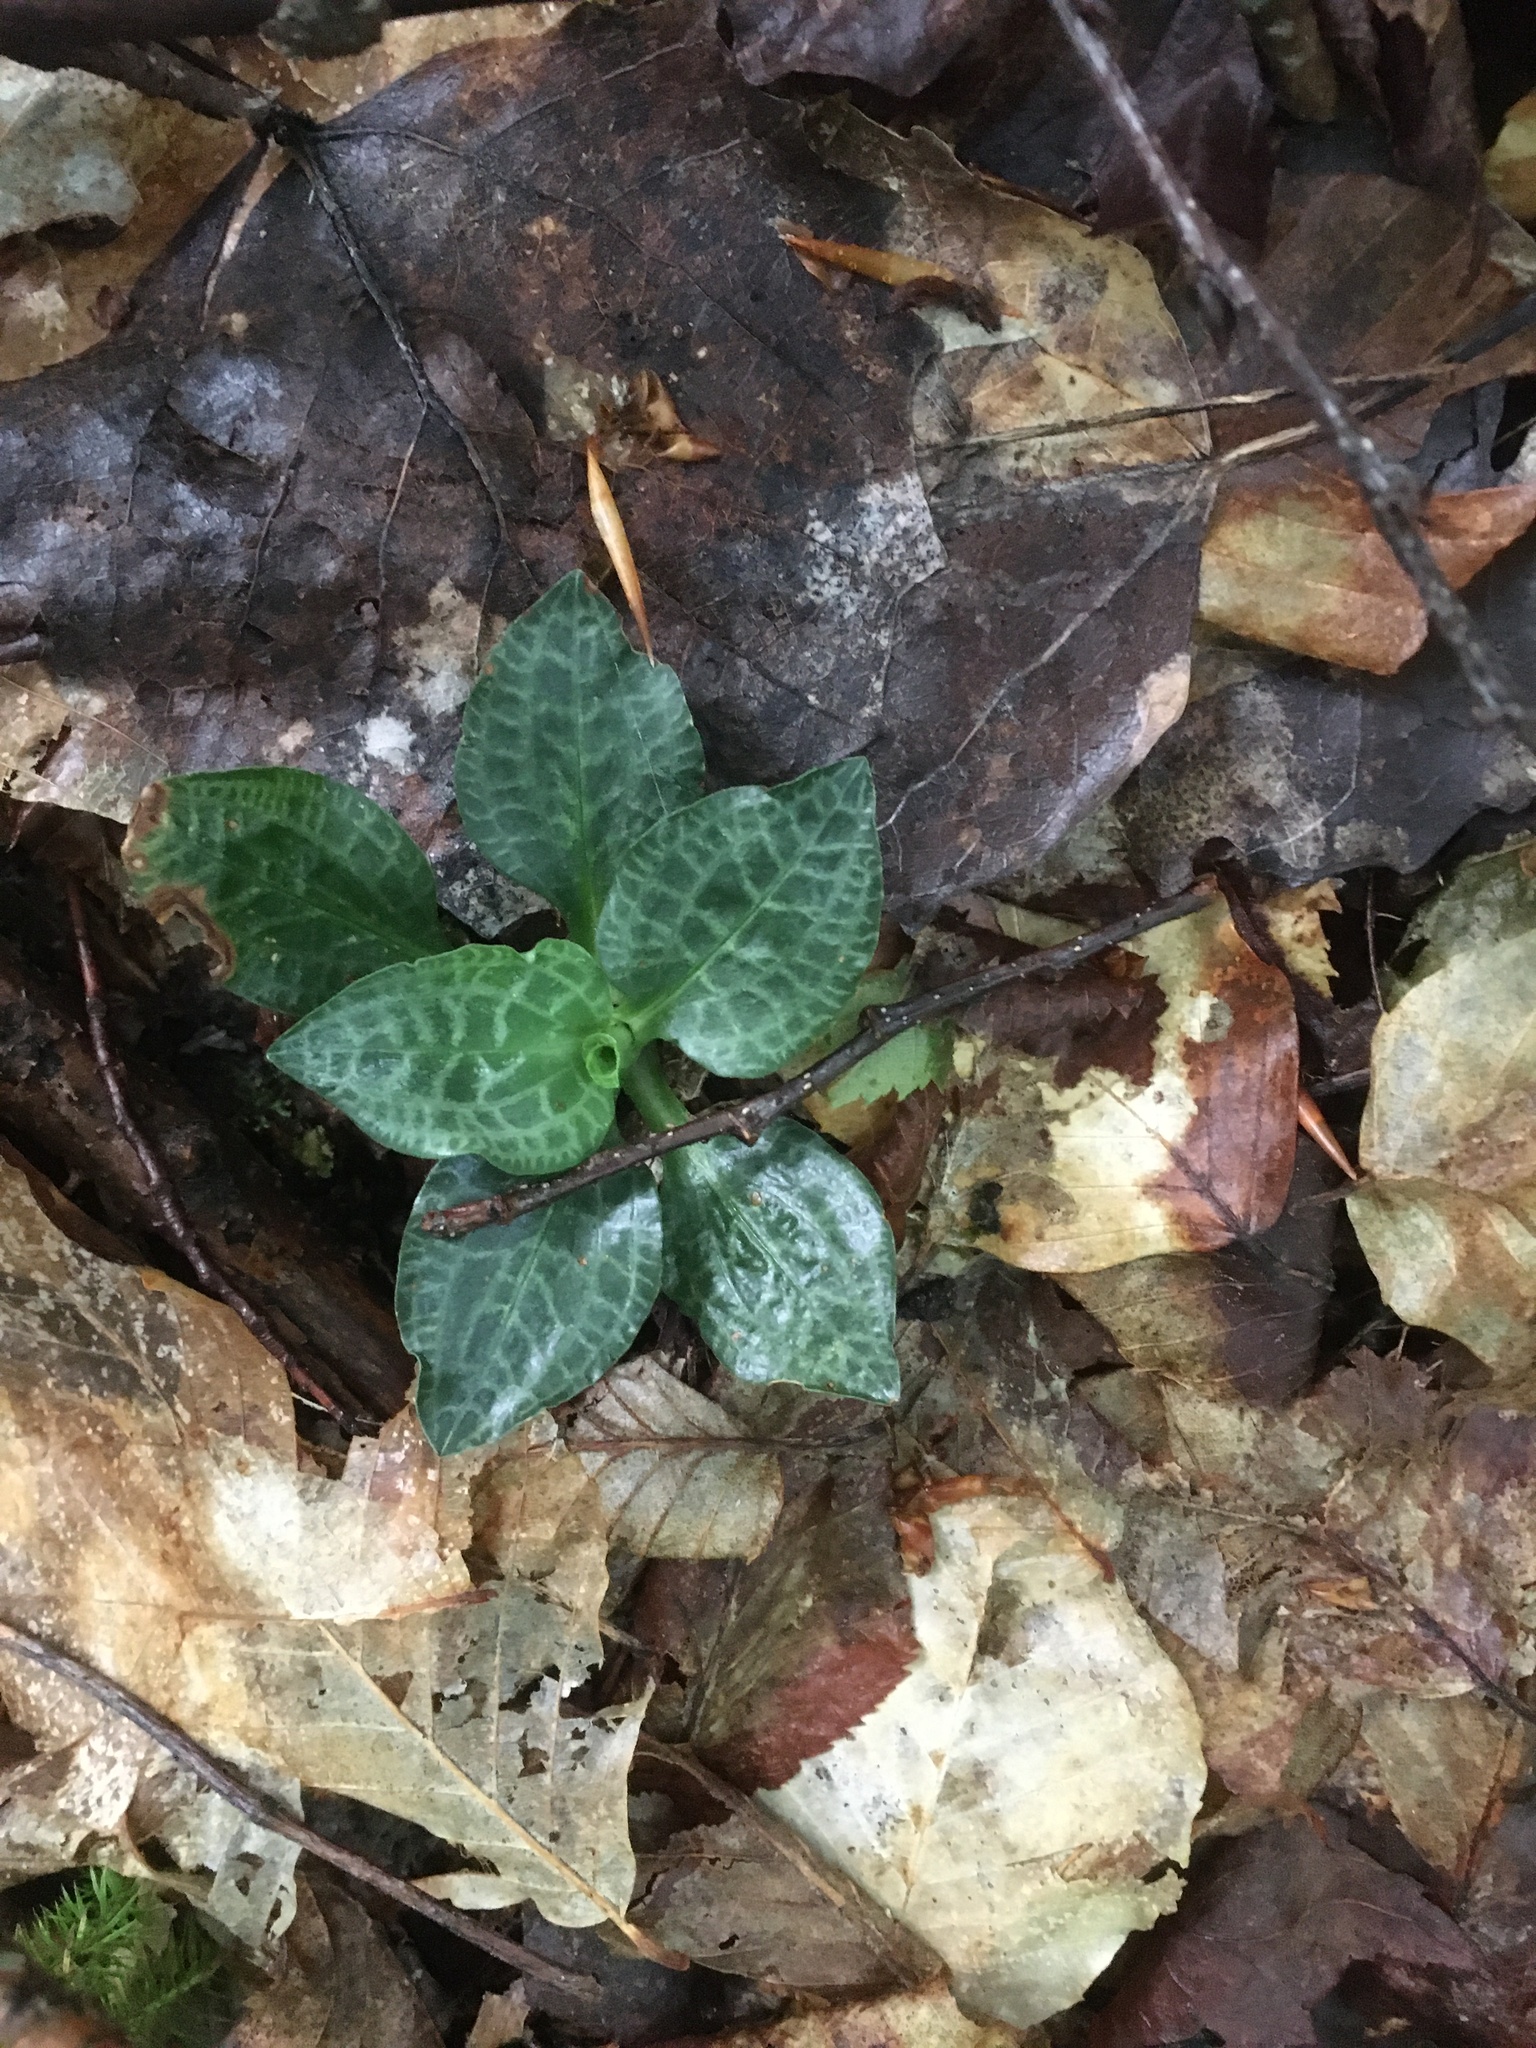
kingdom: Plantae
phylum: Tracheophyta
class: Liliopsida
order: Asparagales
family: Orchidaceae
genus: Goodyera
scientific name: Goodyera tesselata
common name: Checkered rattlesnake-plantain
